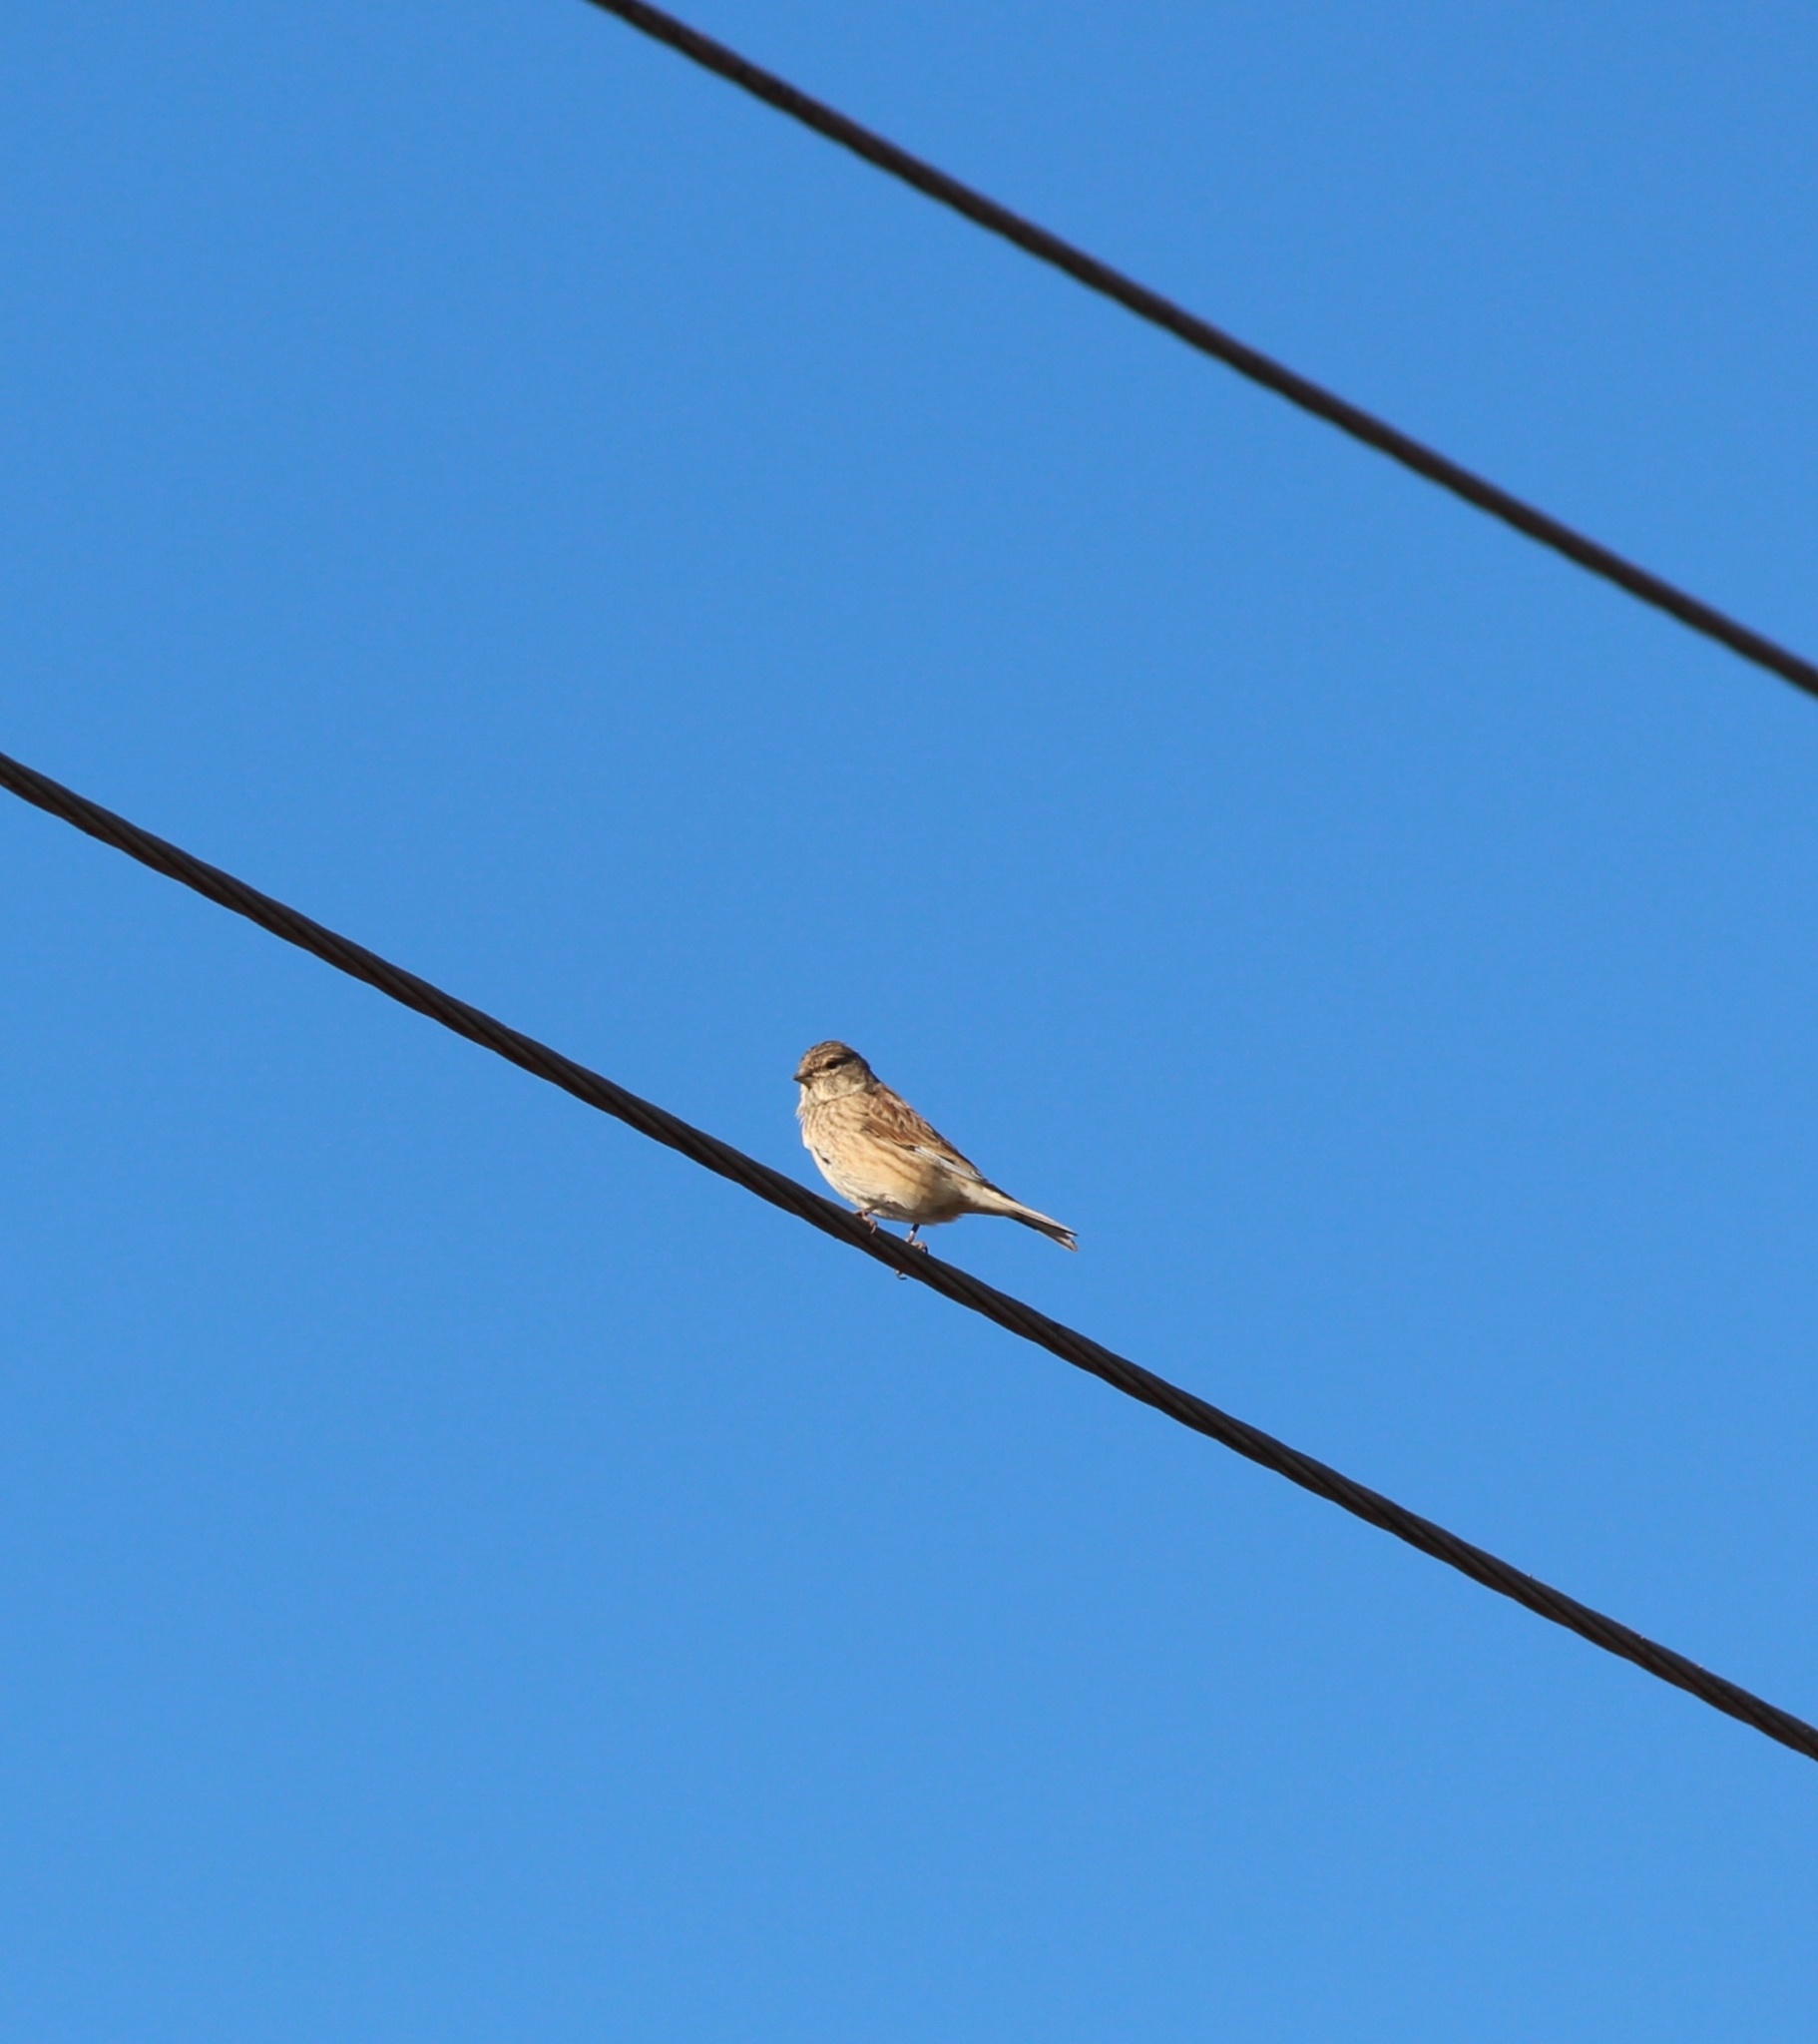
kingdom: Animalia
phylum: Chordata
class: Aves
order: Passeriformes
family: Fringillidae
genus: Linaria
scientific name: Linaria cannabina
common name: Common linnet
